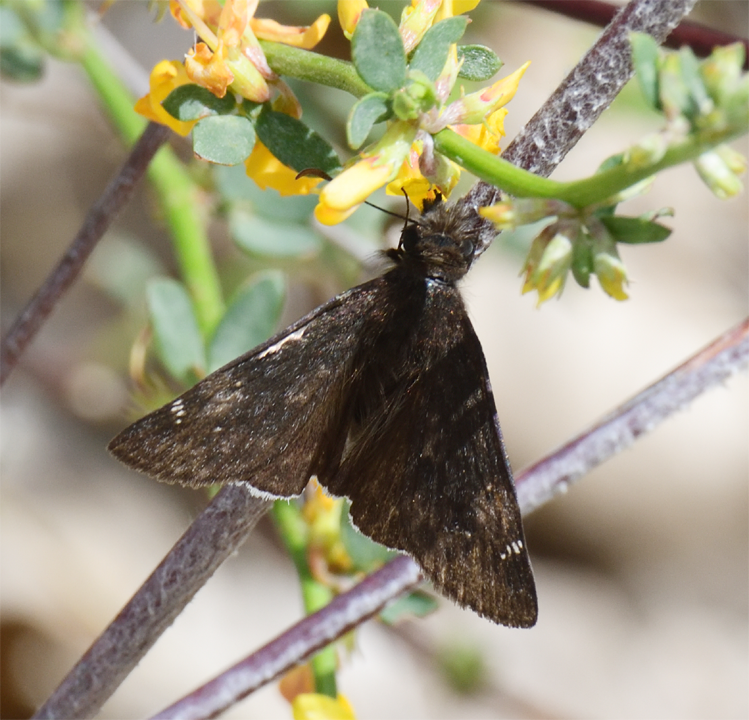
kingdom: Animalia
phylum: Arthropoda
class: Insecta
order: Lepidoptera
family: Hesperiidae
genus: Erynnis
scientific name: Erynnis funeralis
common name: Funereal duskywing
